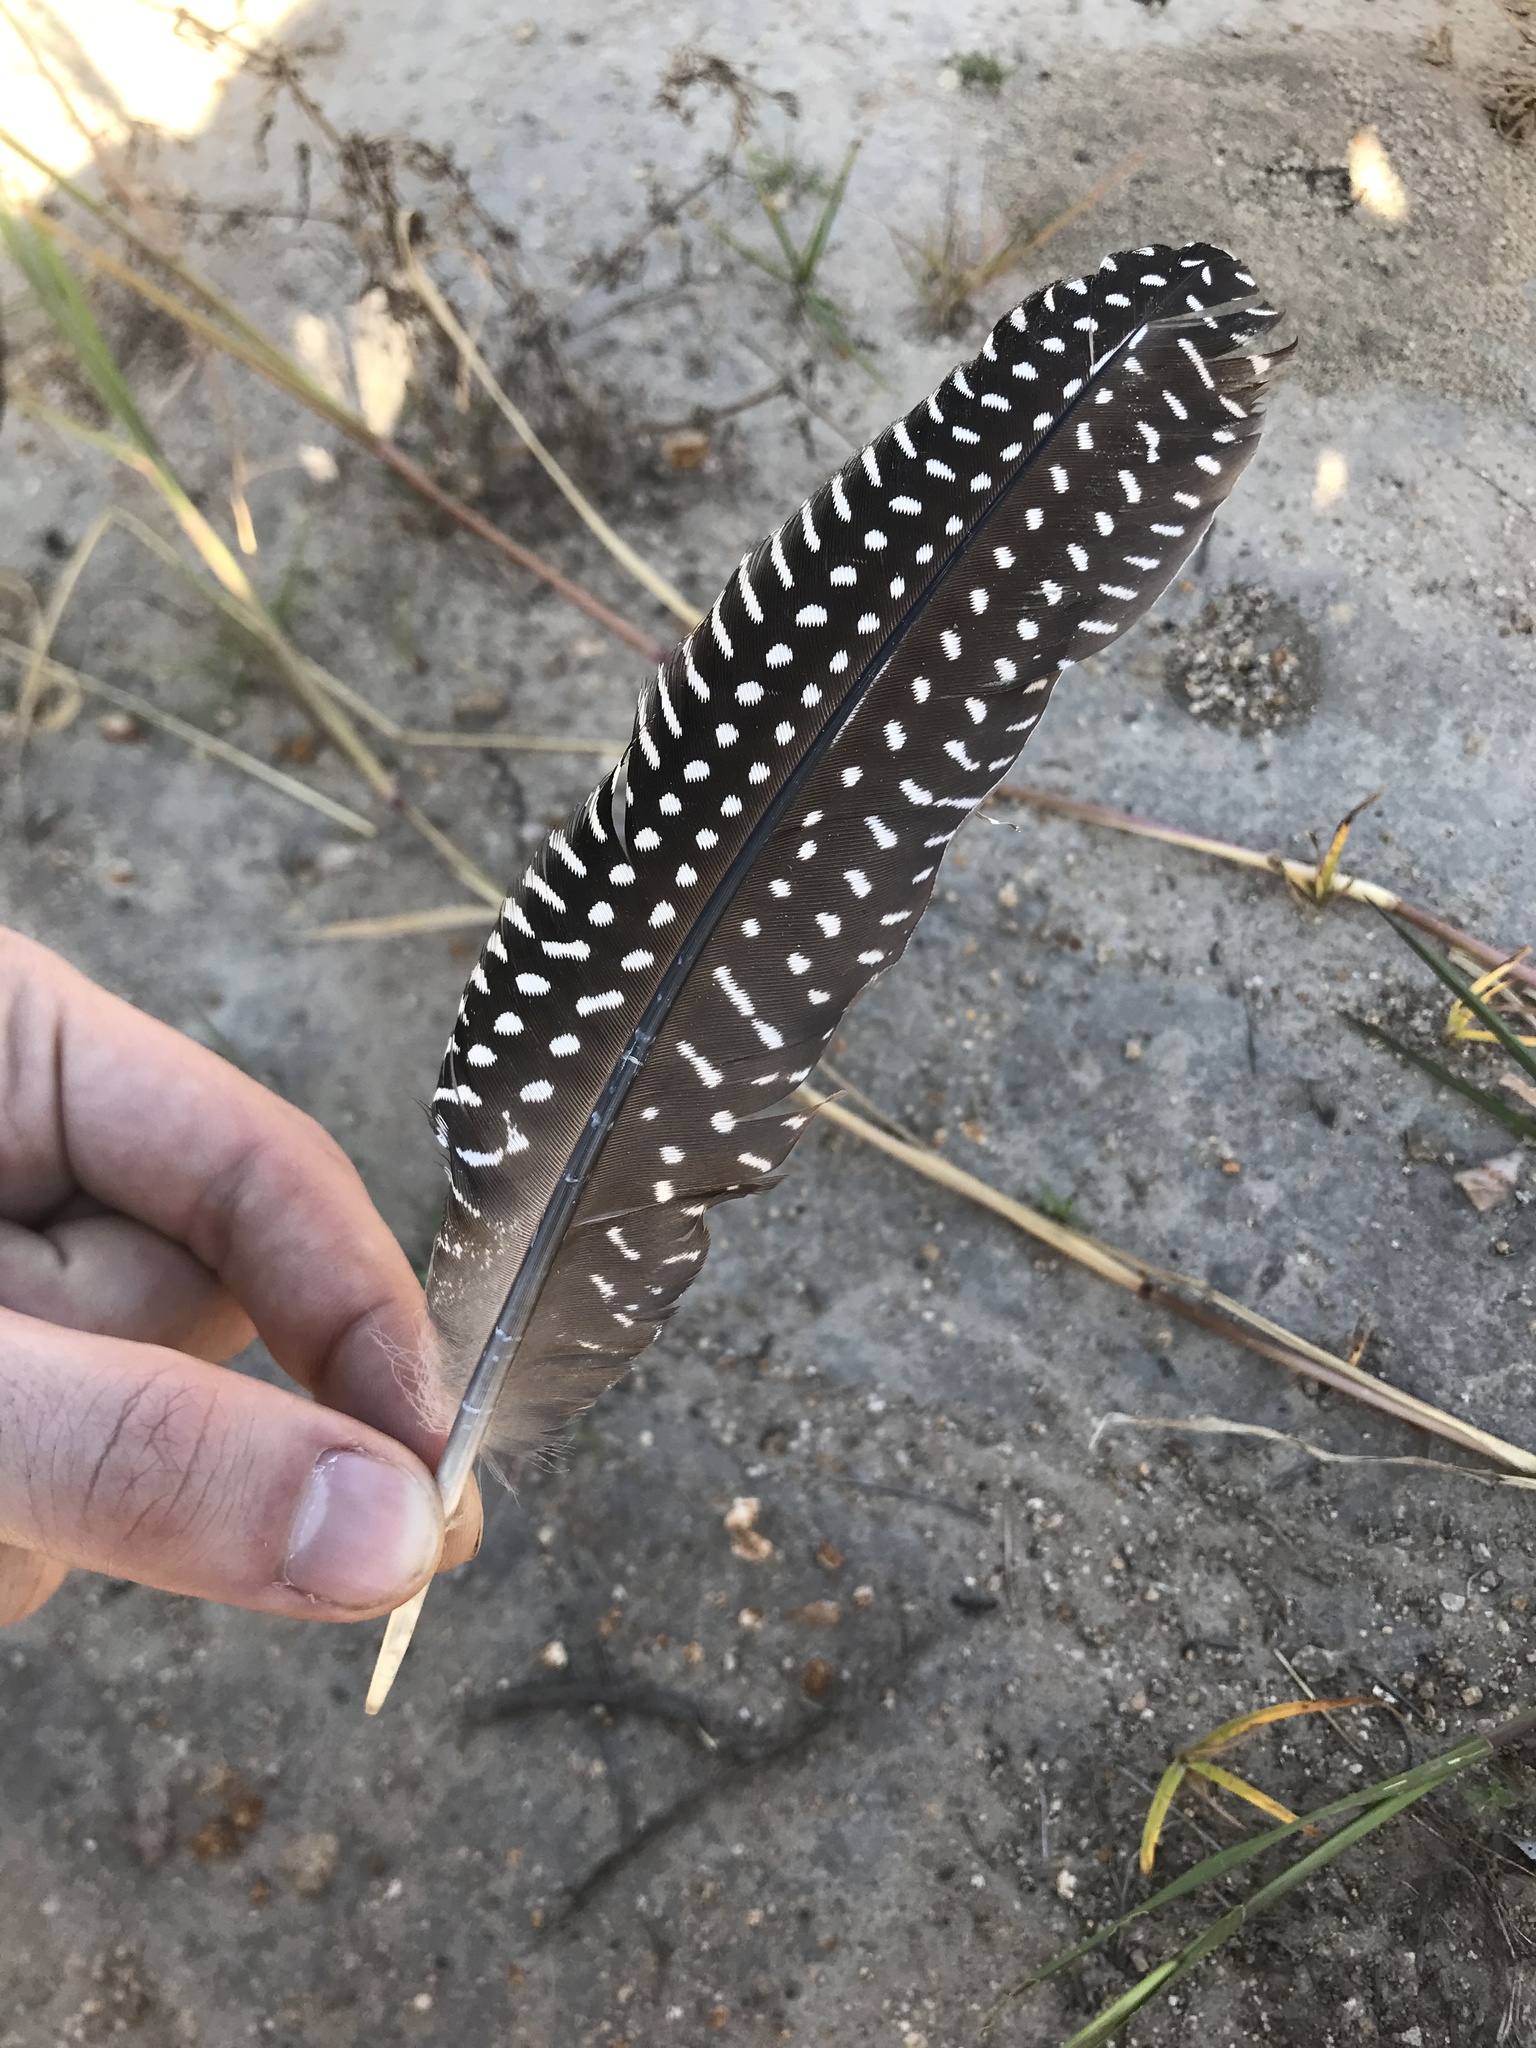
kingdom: Animalia
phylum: Chordata
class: Aves
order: Galliformes
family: Numididae
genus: Numida
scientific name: Numida meleagris
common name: Helmeted guineafowl
